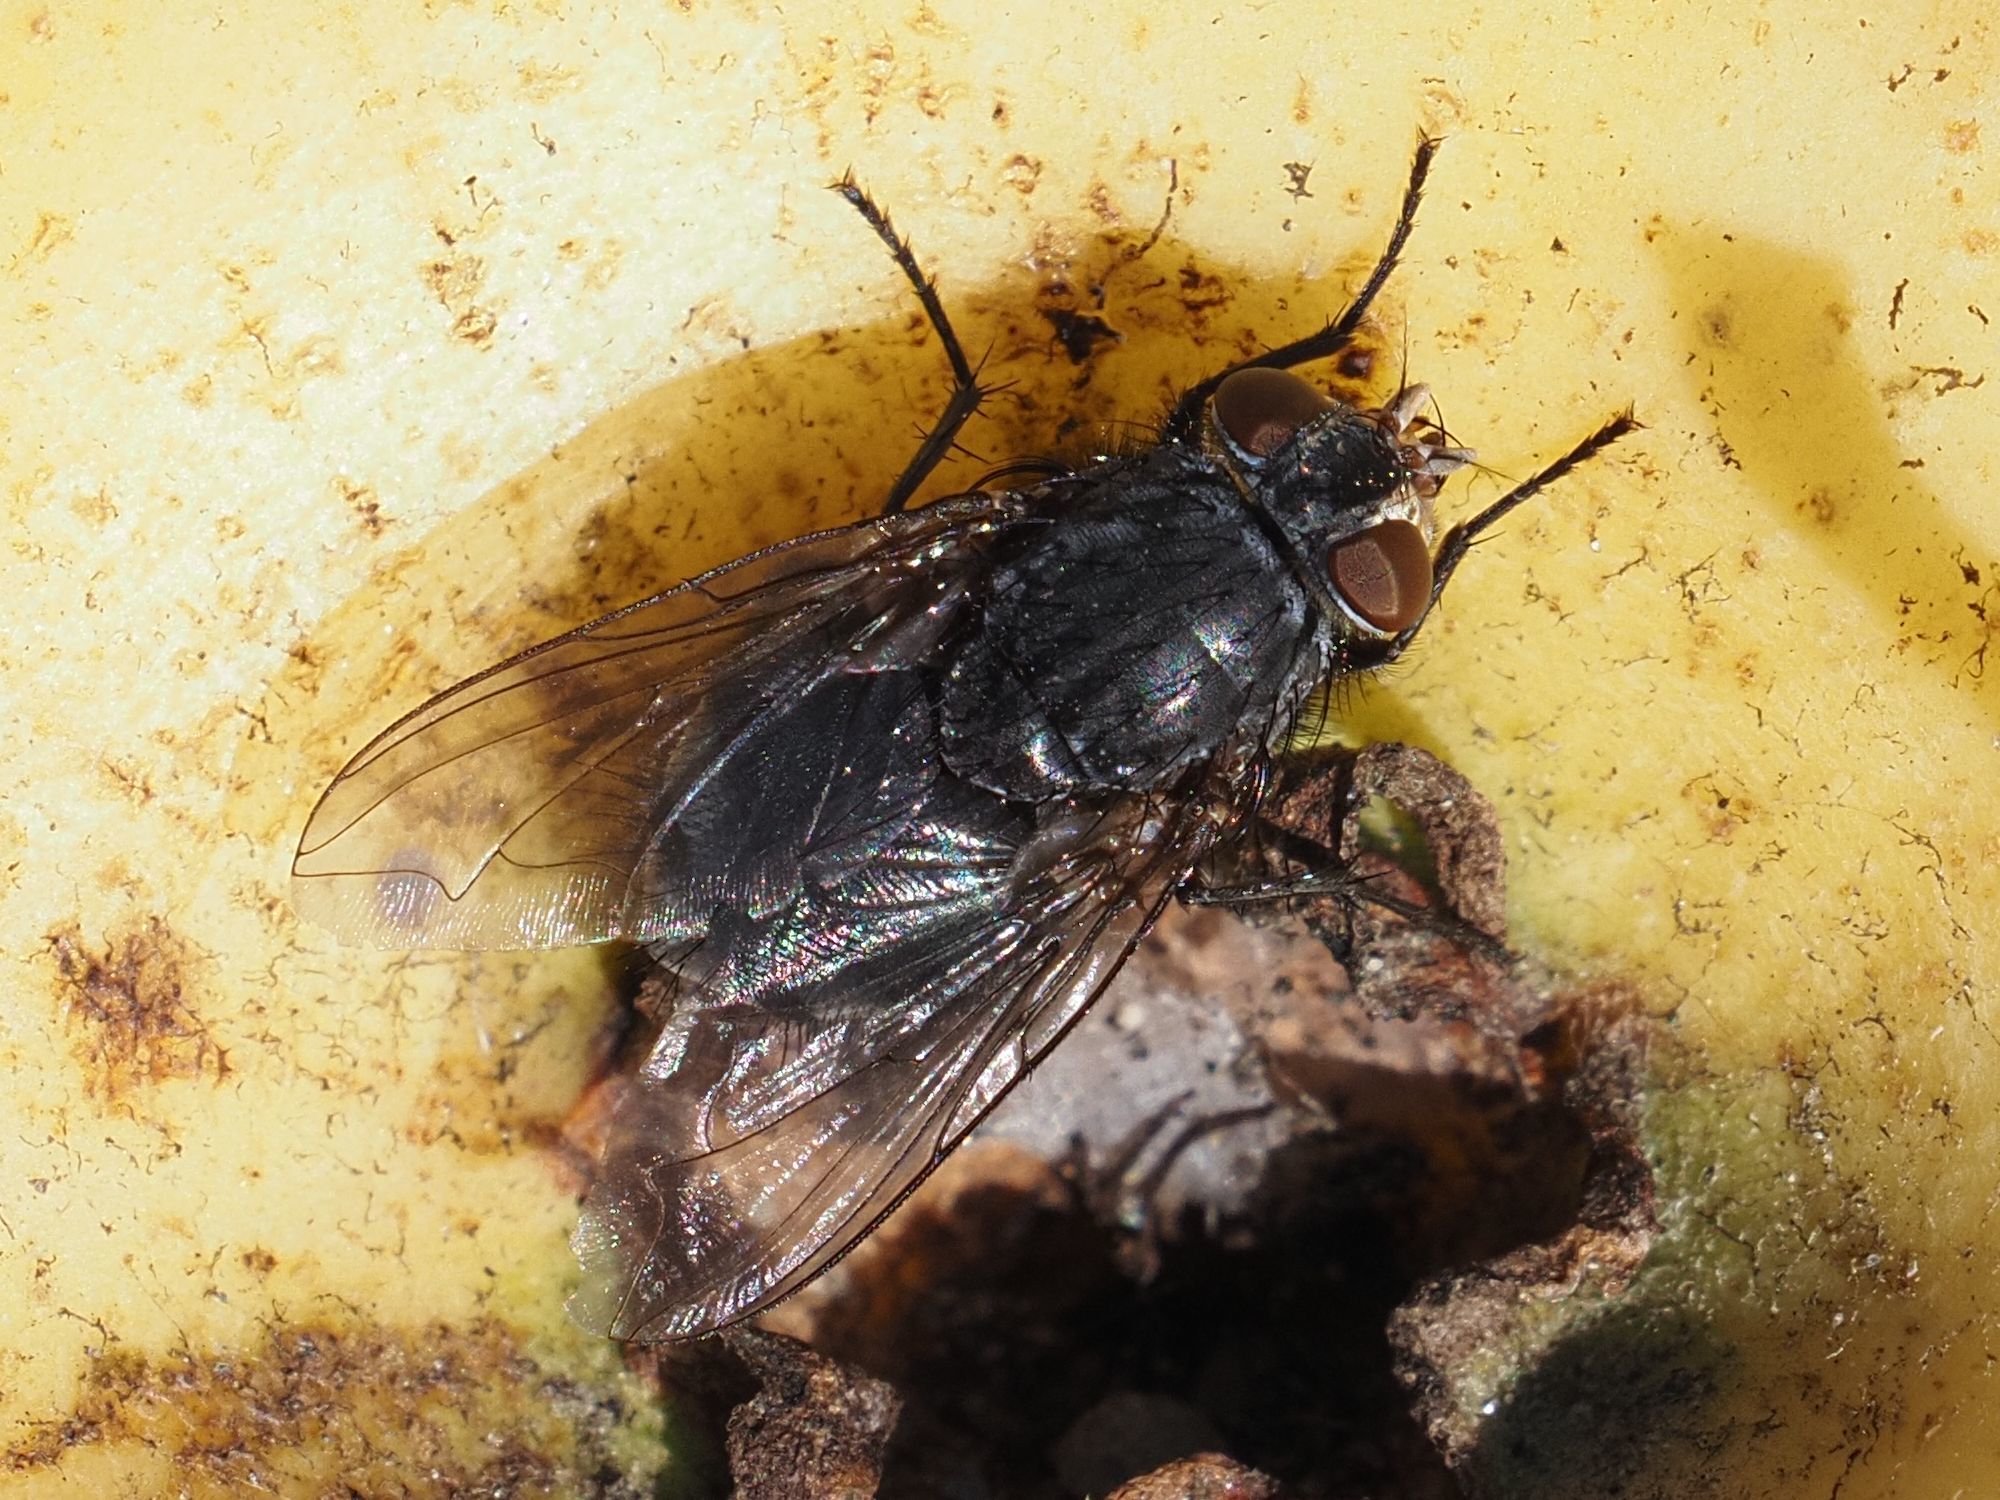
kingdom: Animalia
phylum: Arthropoda
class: Insecta
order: Diptera
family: Calliphoridae
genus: Calliphora
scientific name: Calliphora vicina
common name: Common blow flie
